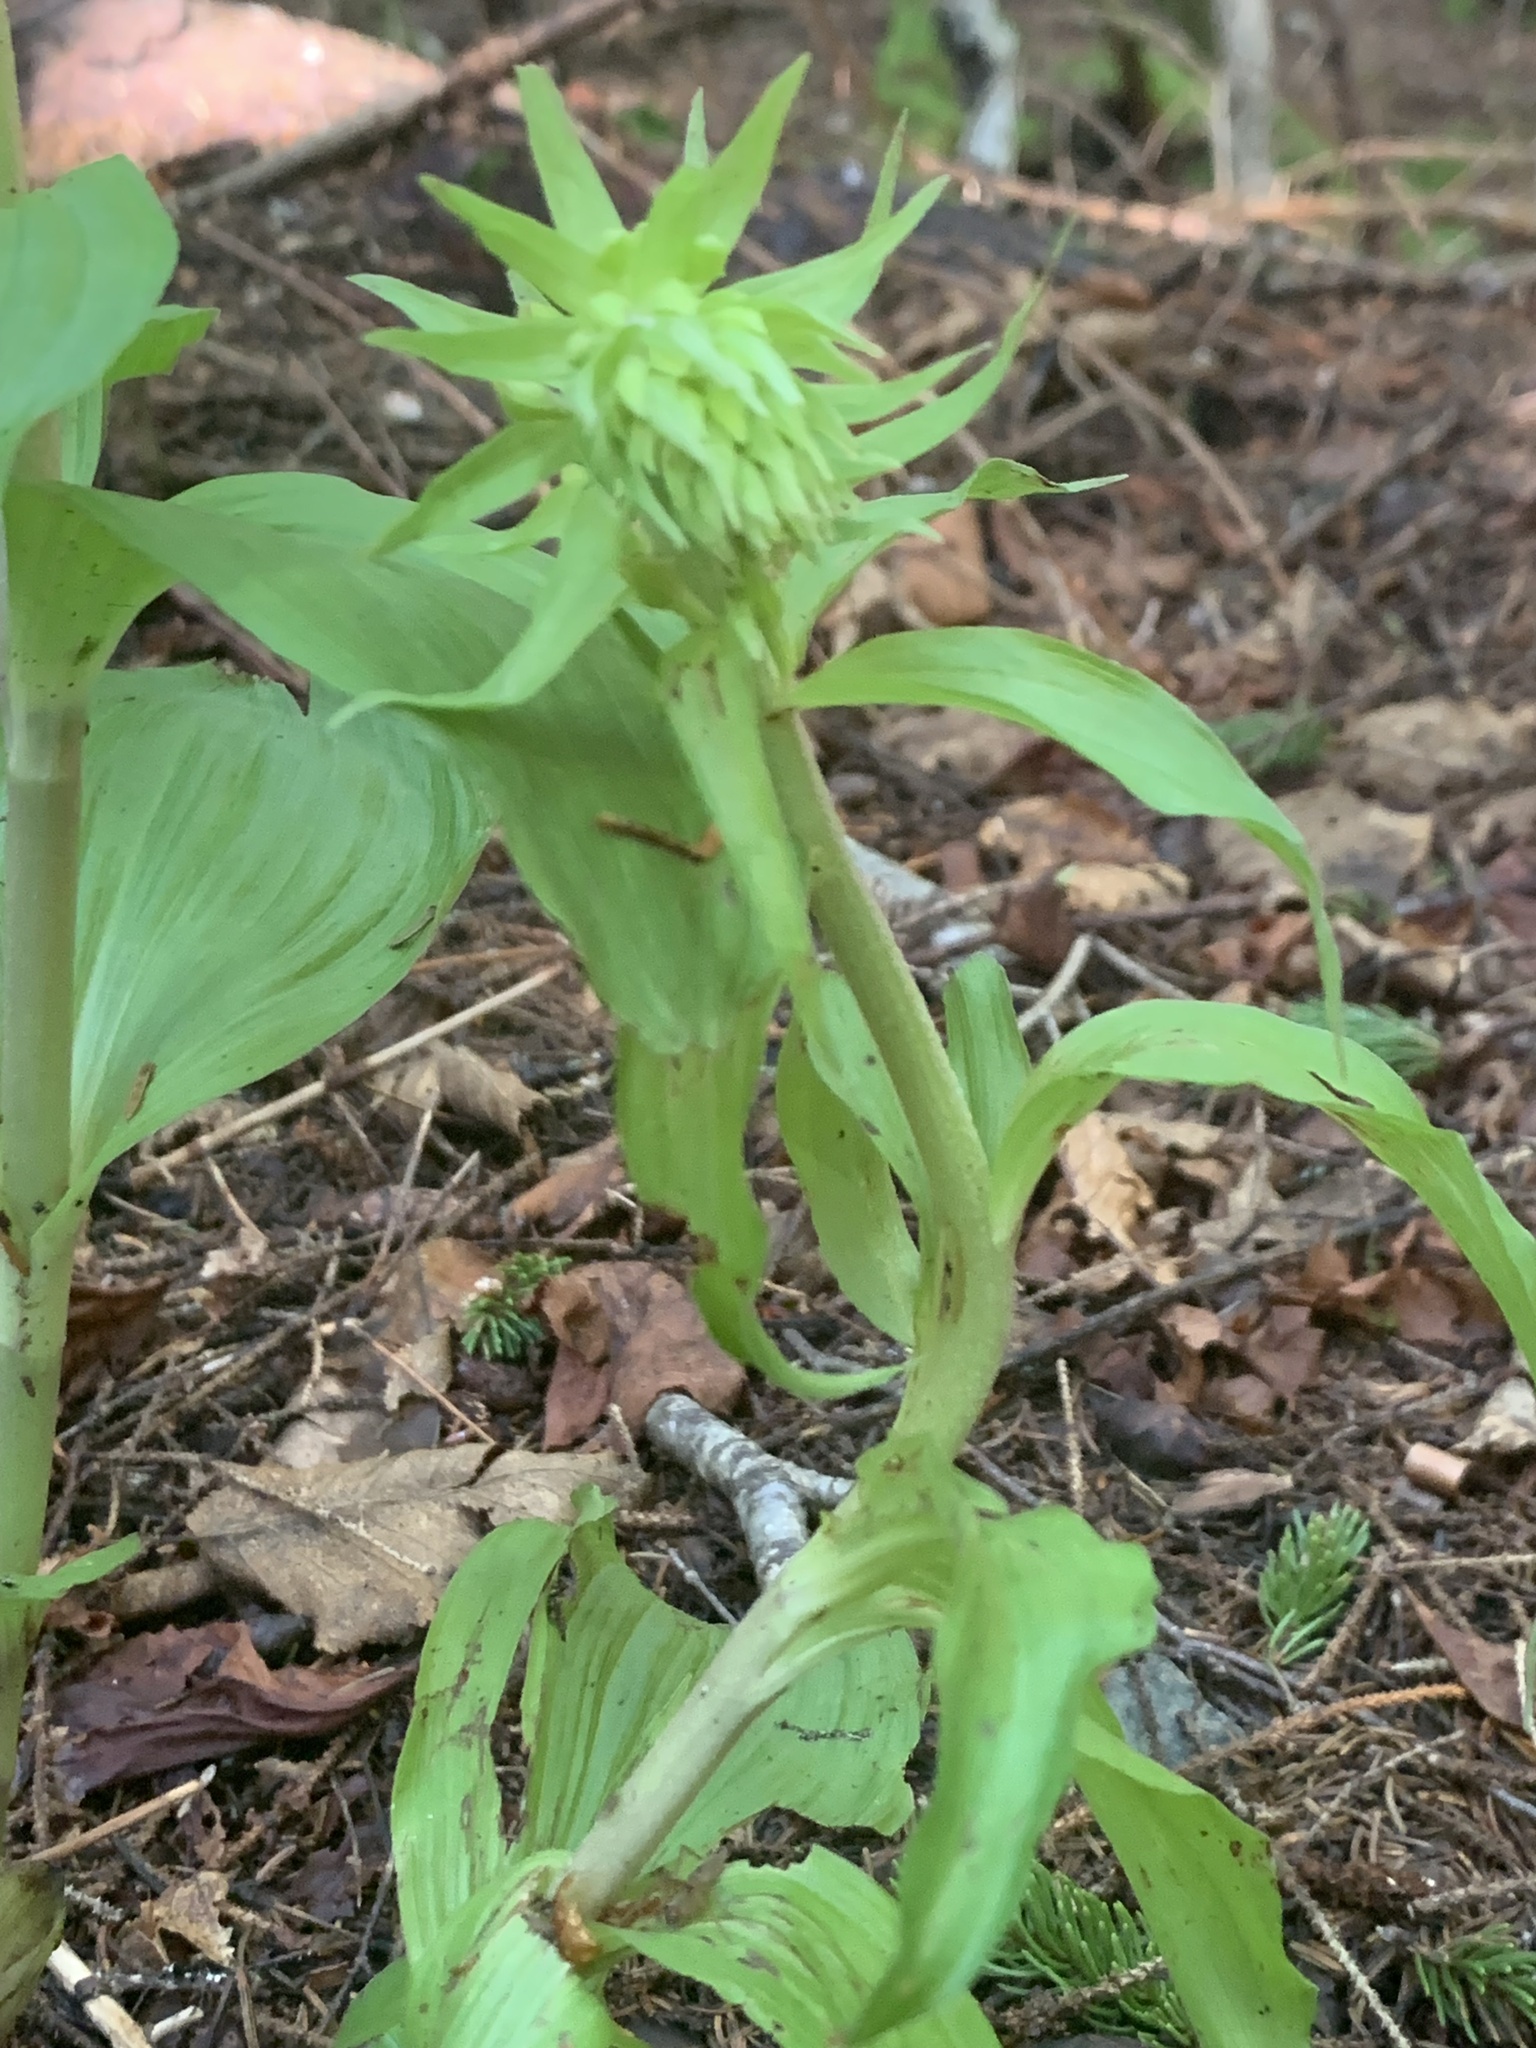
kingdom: Plantae
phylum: Tracheophyta
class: Liliopsida
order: Asparagales
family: Orchidaceae
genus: Epipactis
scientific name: Epipactis helleborine
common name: Broad-leaved helleborine
